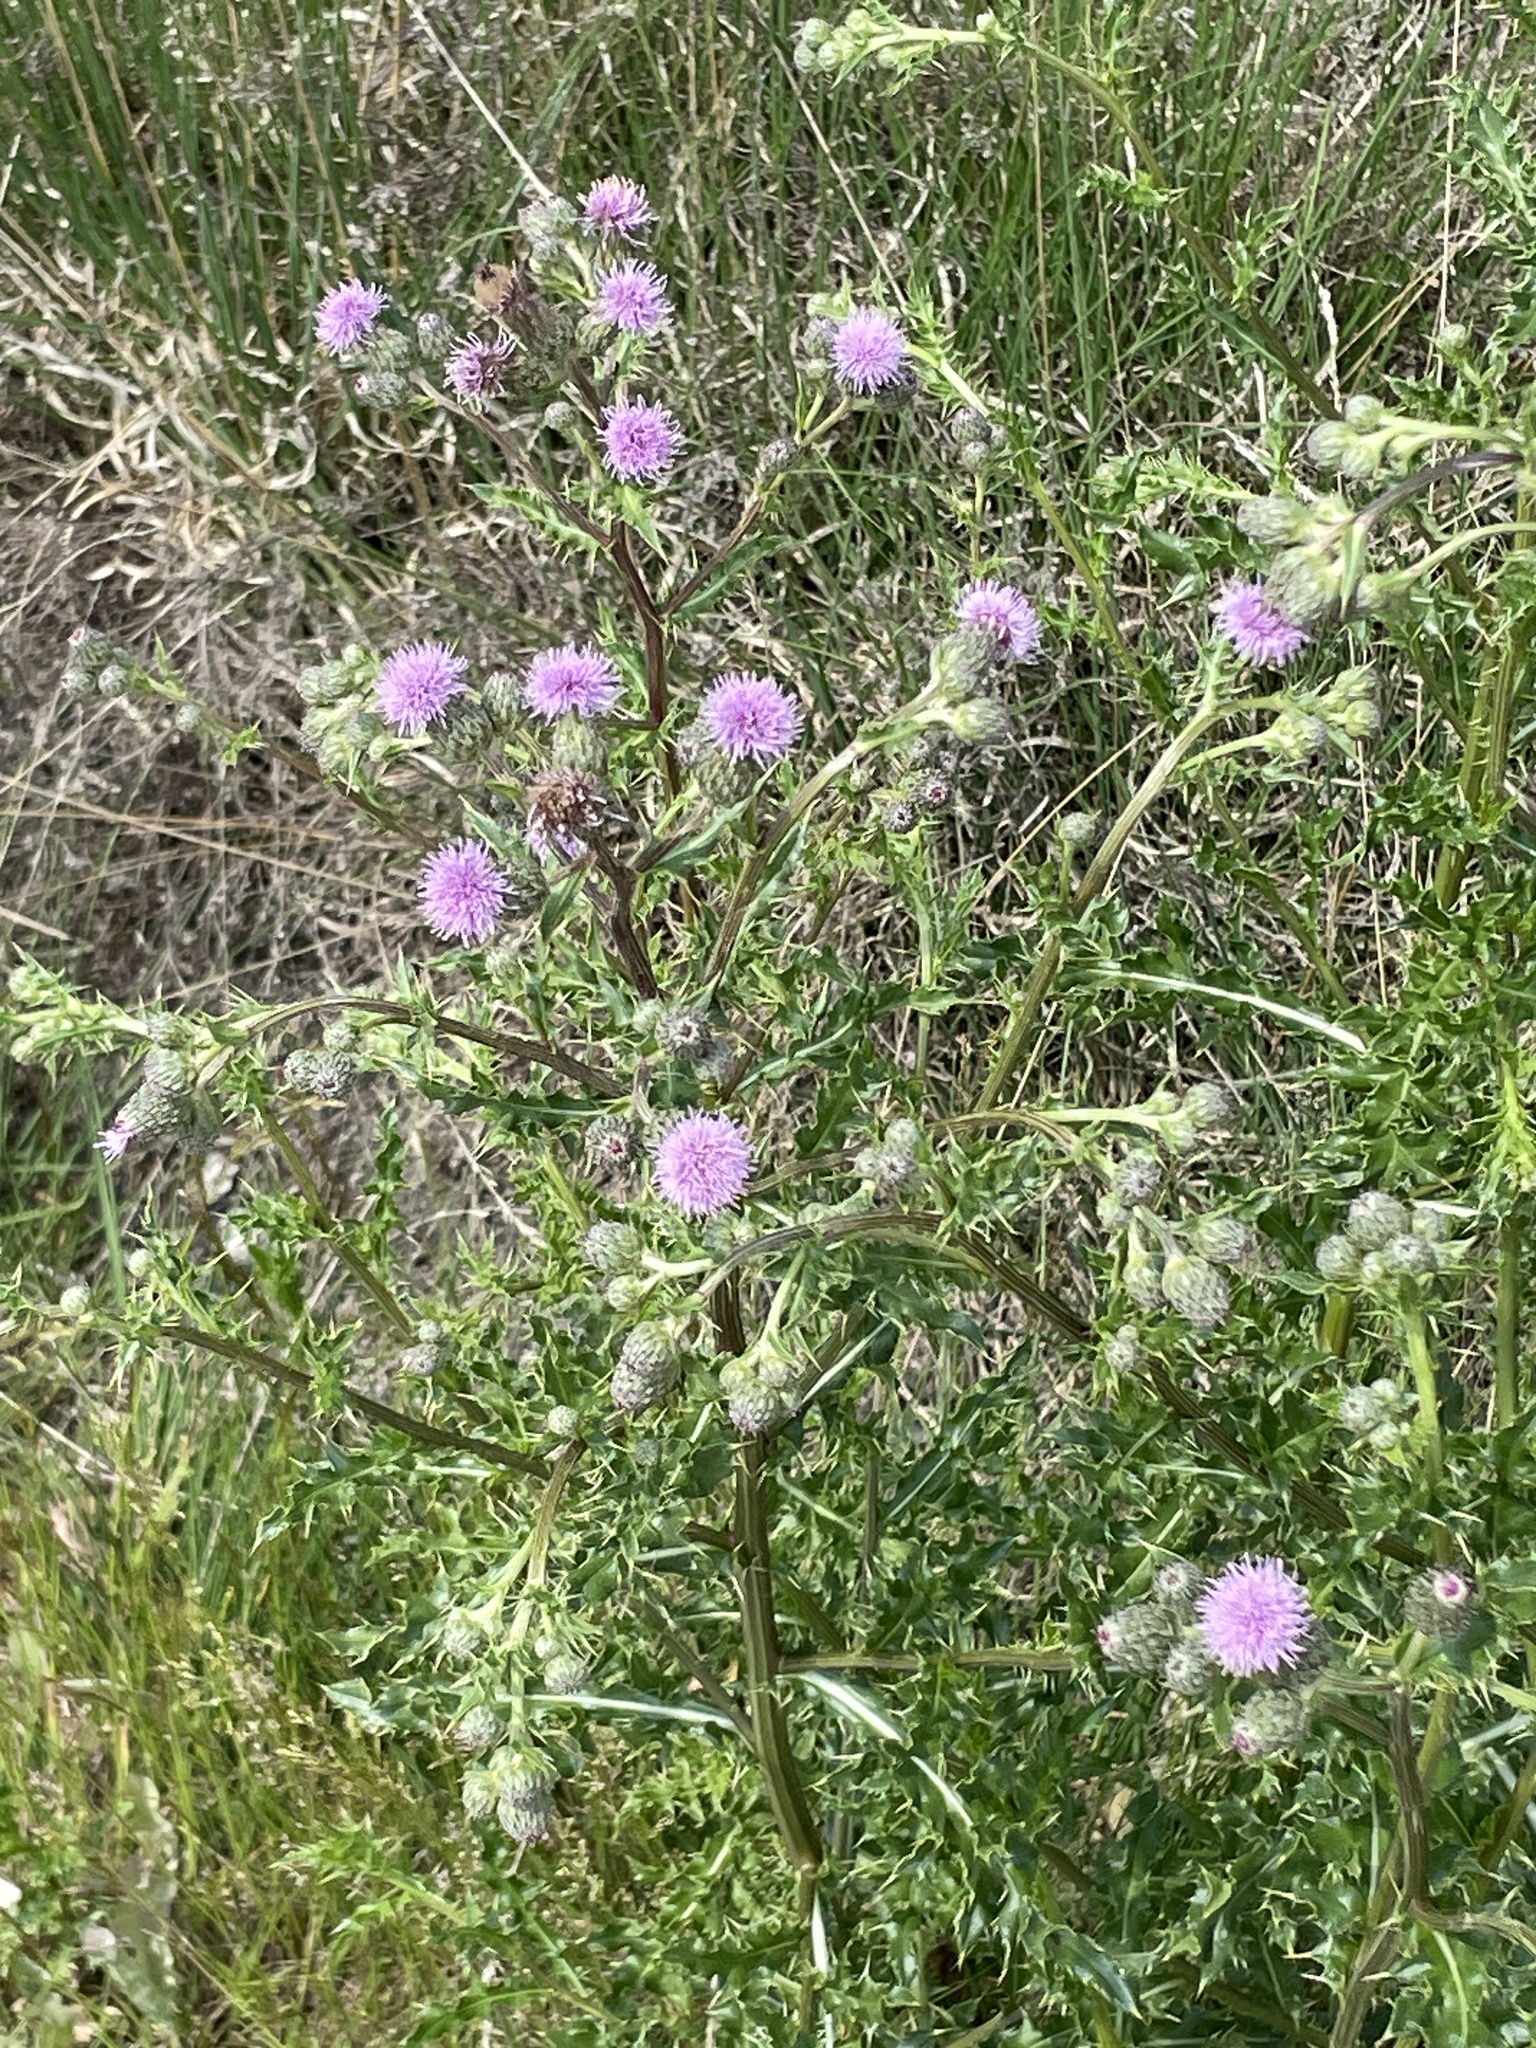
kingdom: Plantae
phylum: Tracheophyta
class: Magnoliopsida
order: Asterales
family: Asteraceae
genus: Cirsium
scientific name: Cirsium arvense
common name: Creeping thistle
